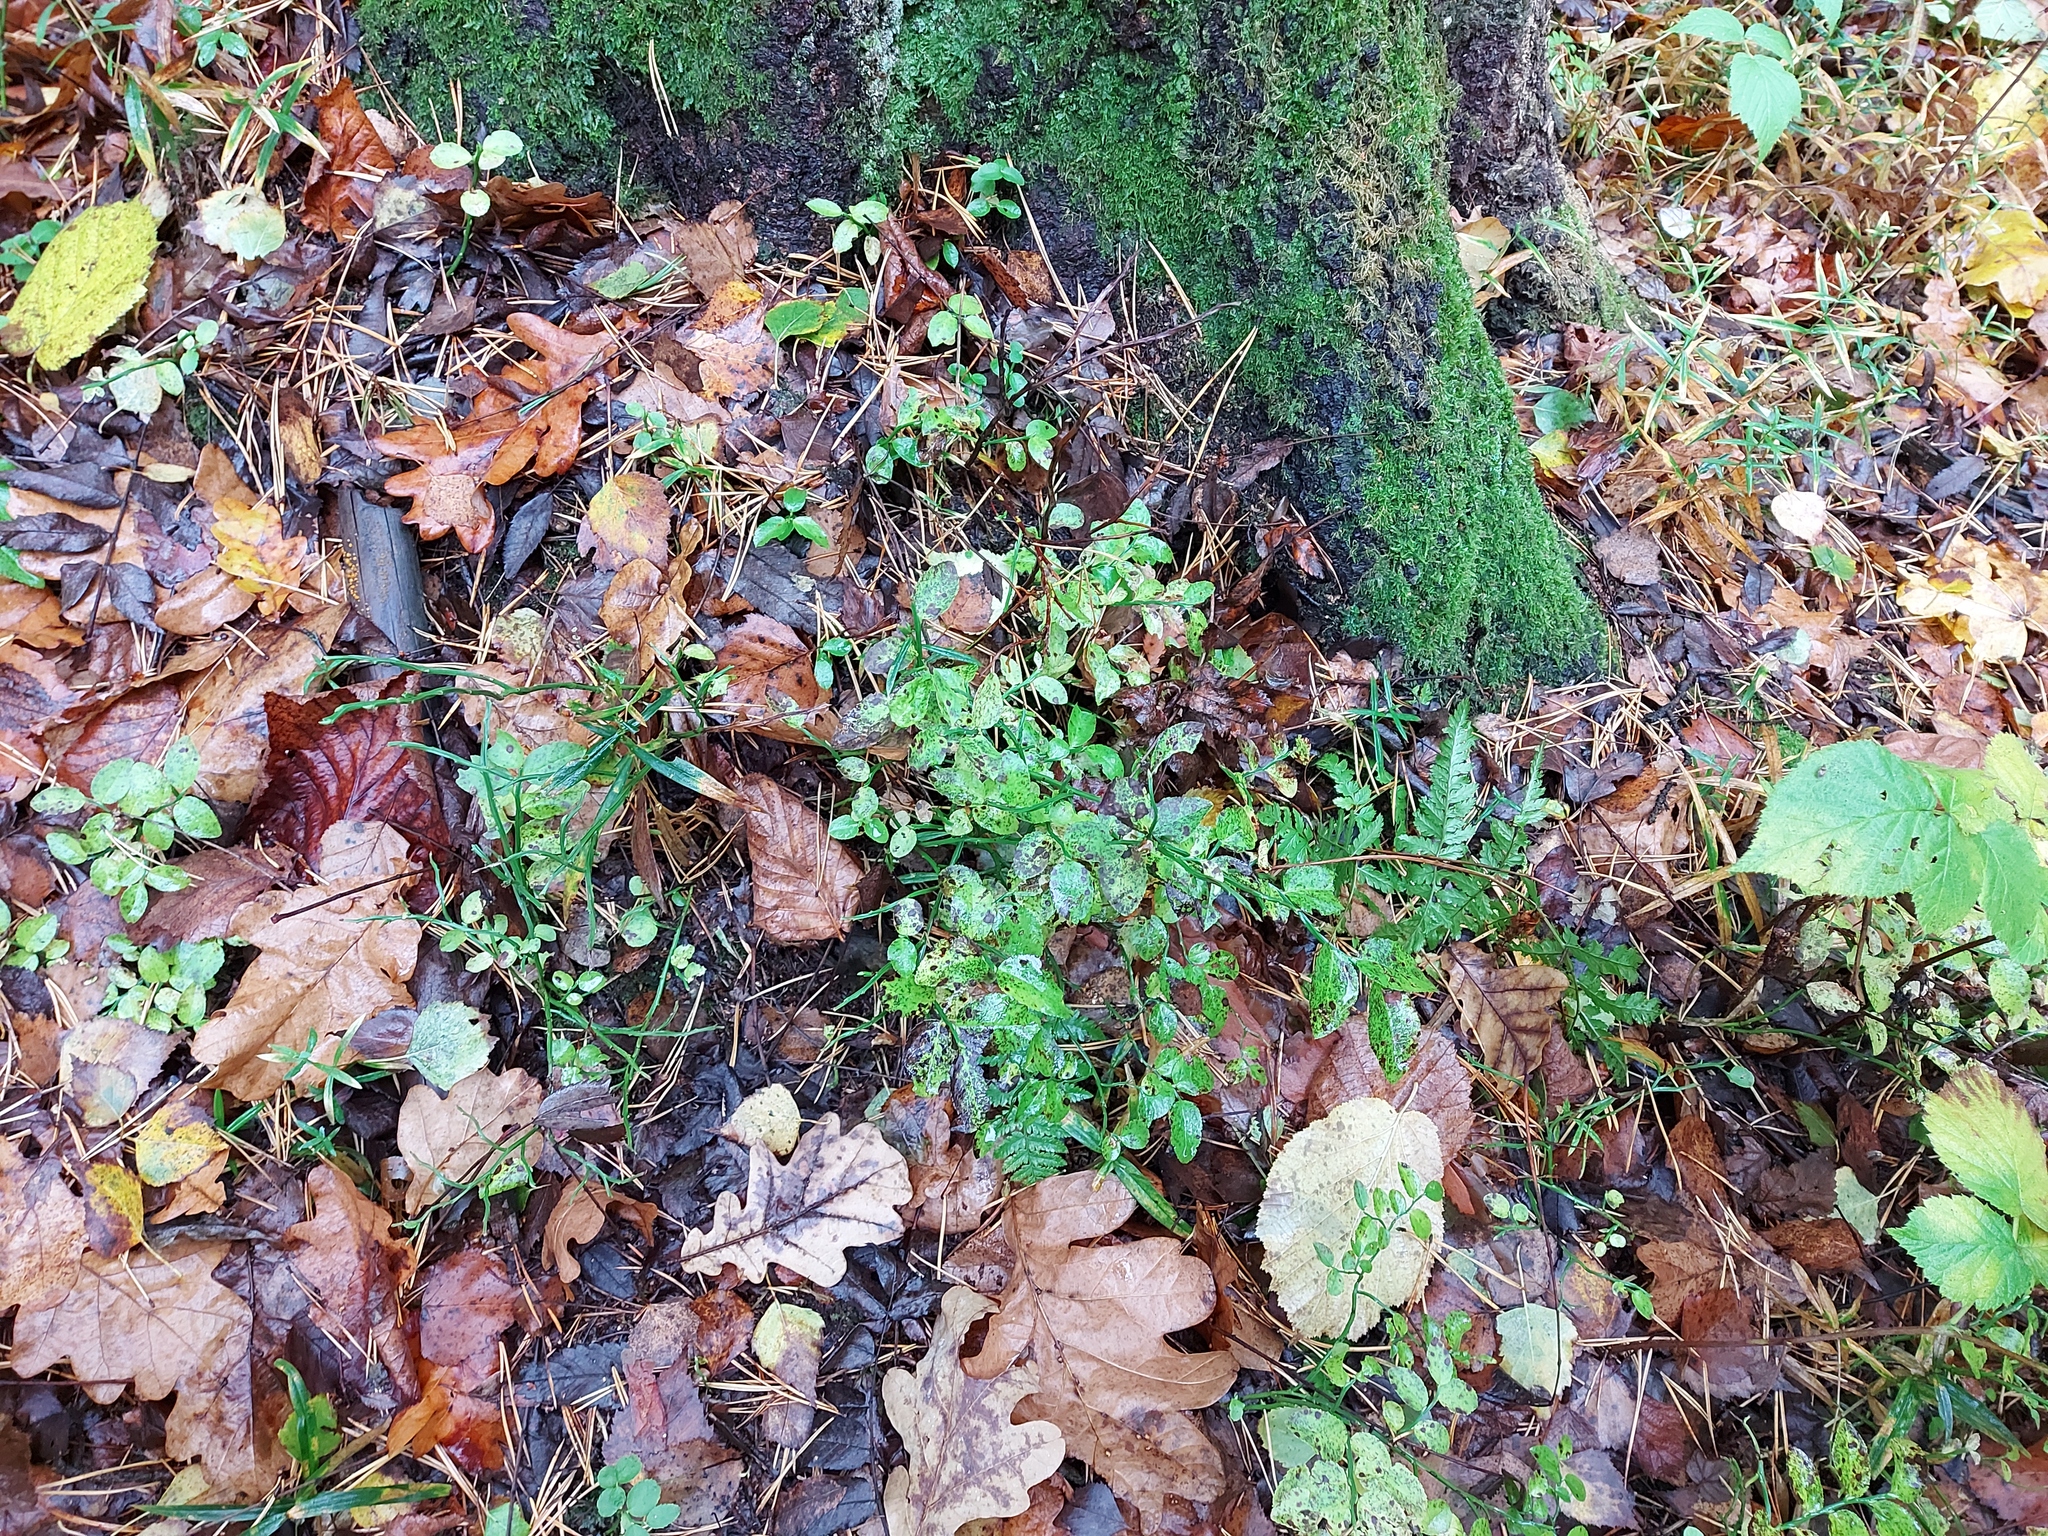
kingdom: Plantae
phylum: Tracheophyta
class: Magnoliopsida
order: Ericales
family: Ericaceae
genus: Vaccinium
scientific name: Vaccinium myrtillus
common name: Bilberry
